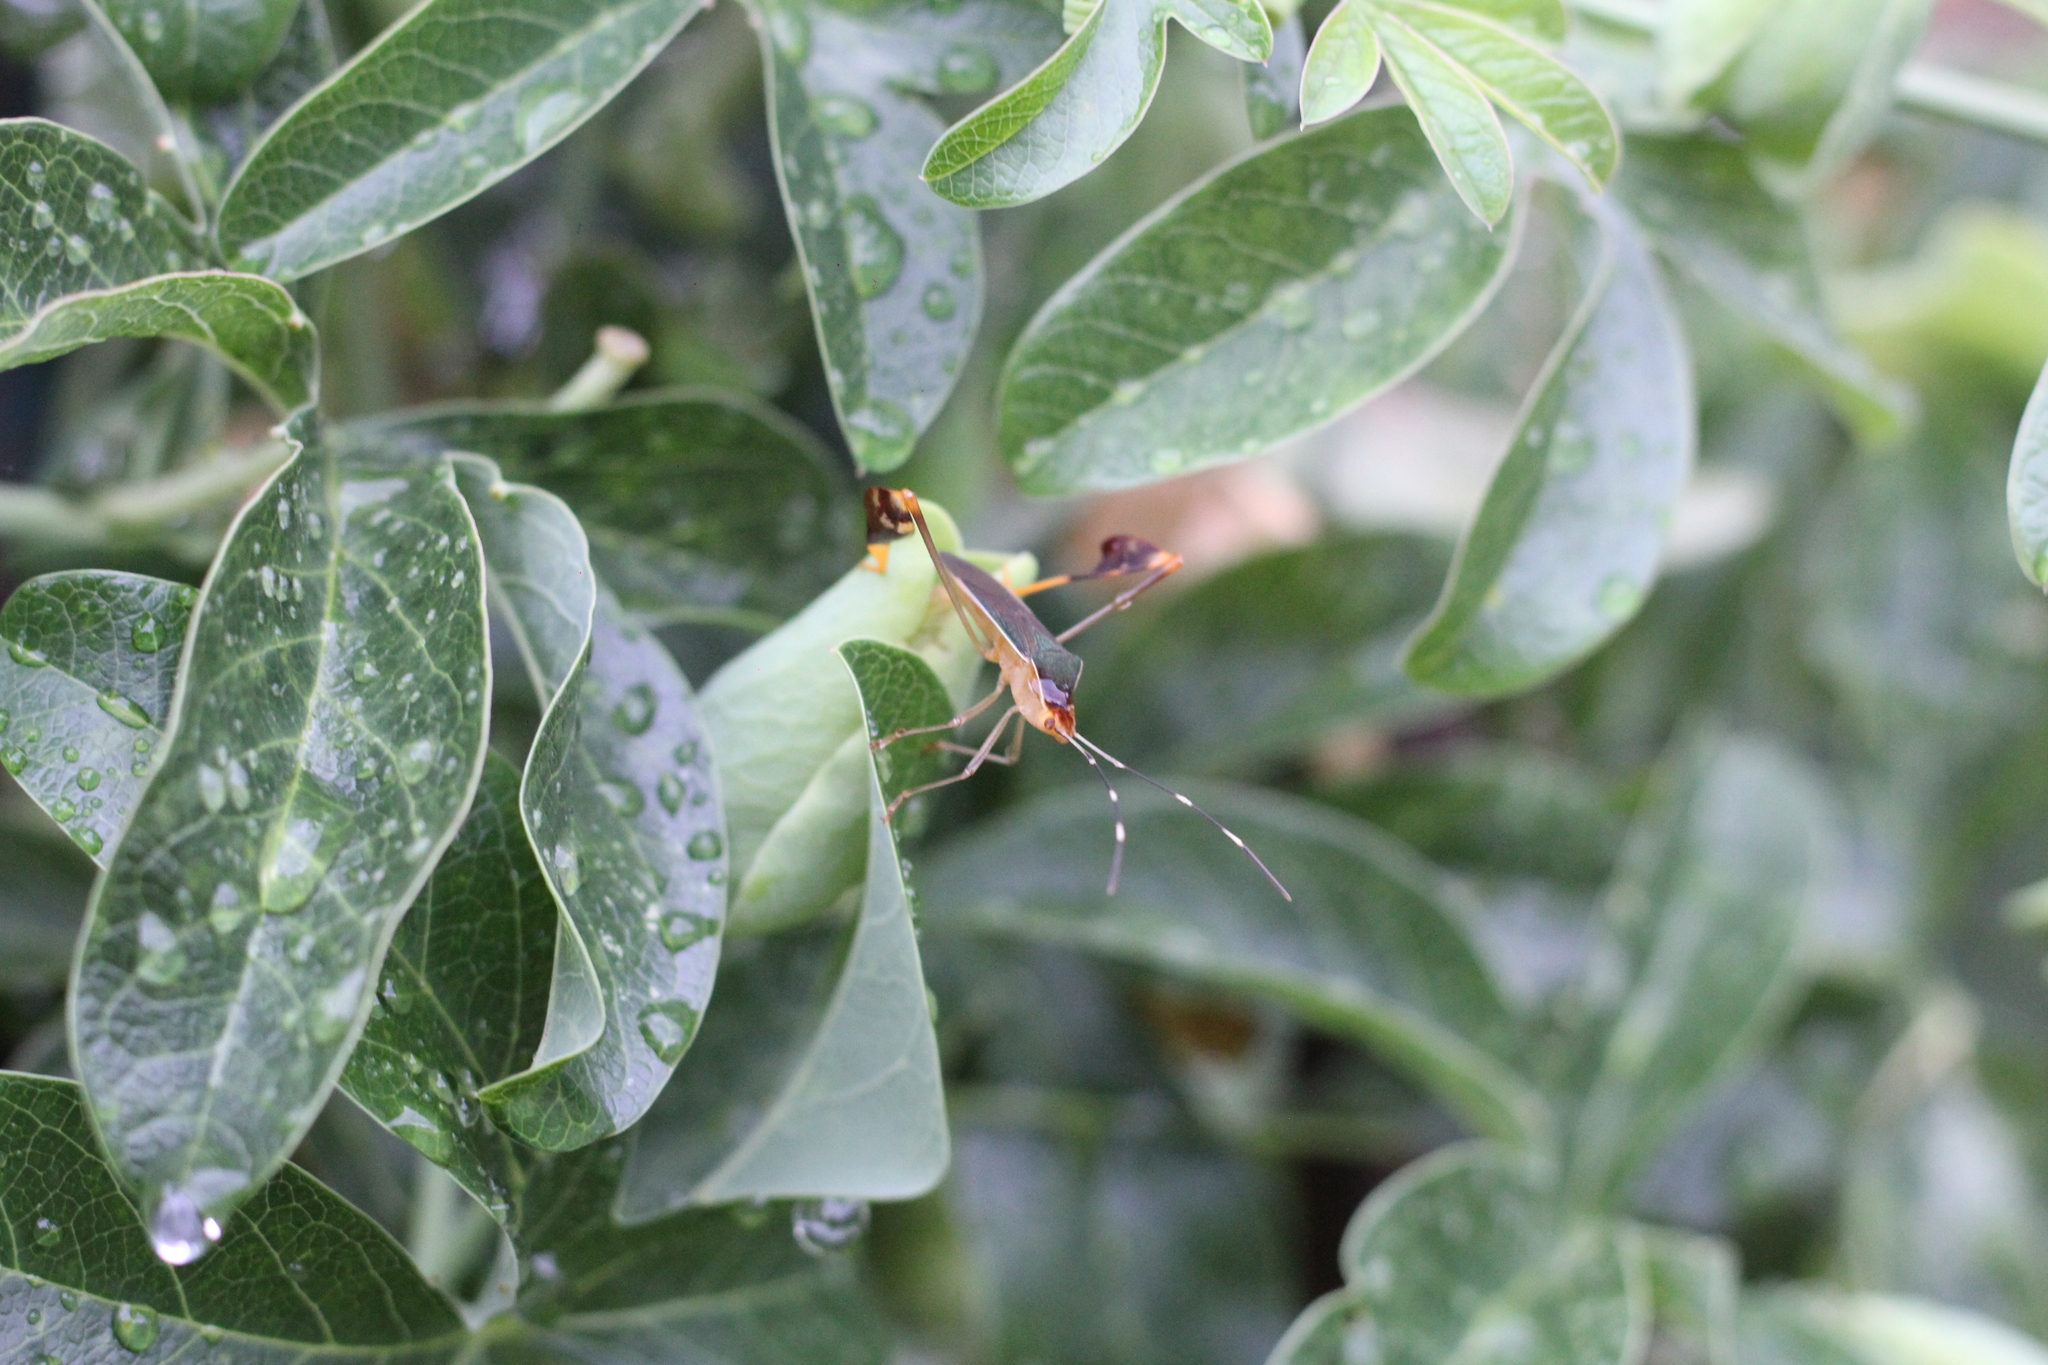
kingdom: Animalia
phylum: Arthropoda
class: Insecta
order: Hemiptera
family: Coreidae
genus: Anisoscelis
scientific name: Anisoscelis marginellus
